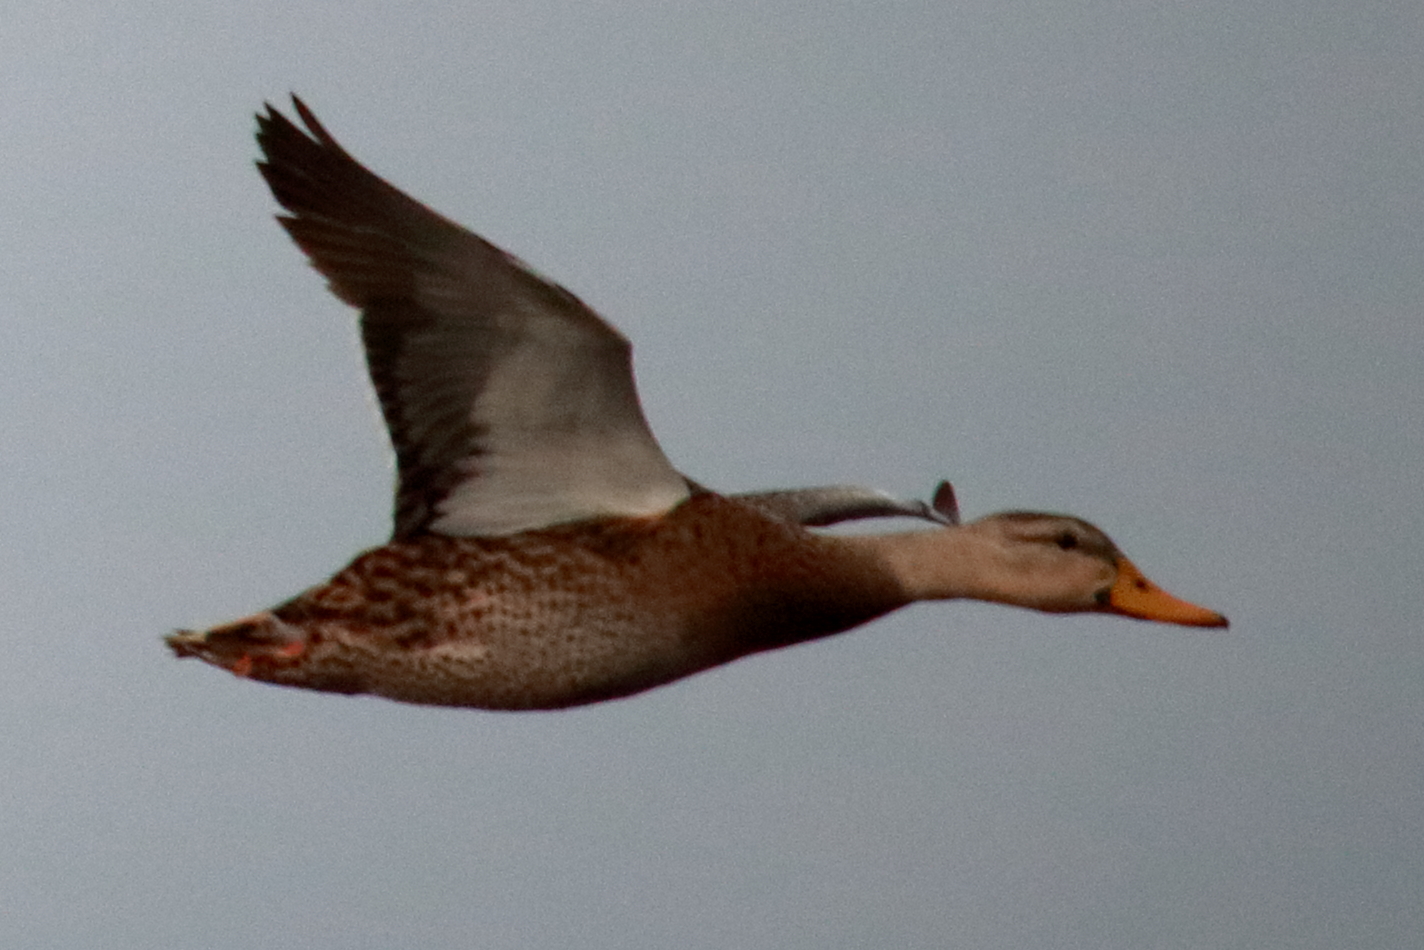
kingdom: Animalia
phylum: Chordata
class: Aves
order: Anseriformes
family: Anatidae
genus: Anas
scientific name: Anas
